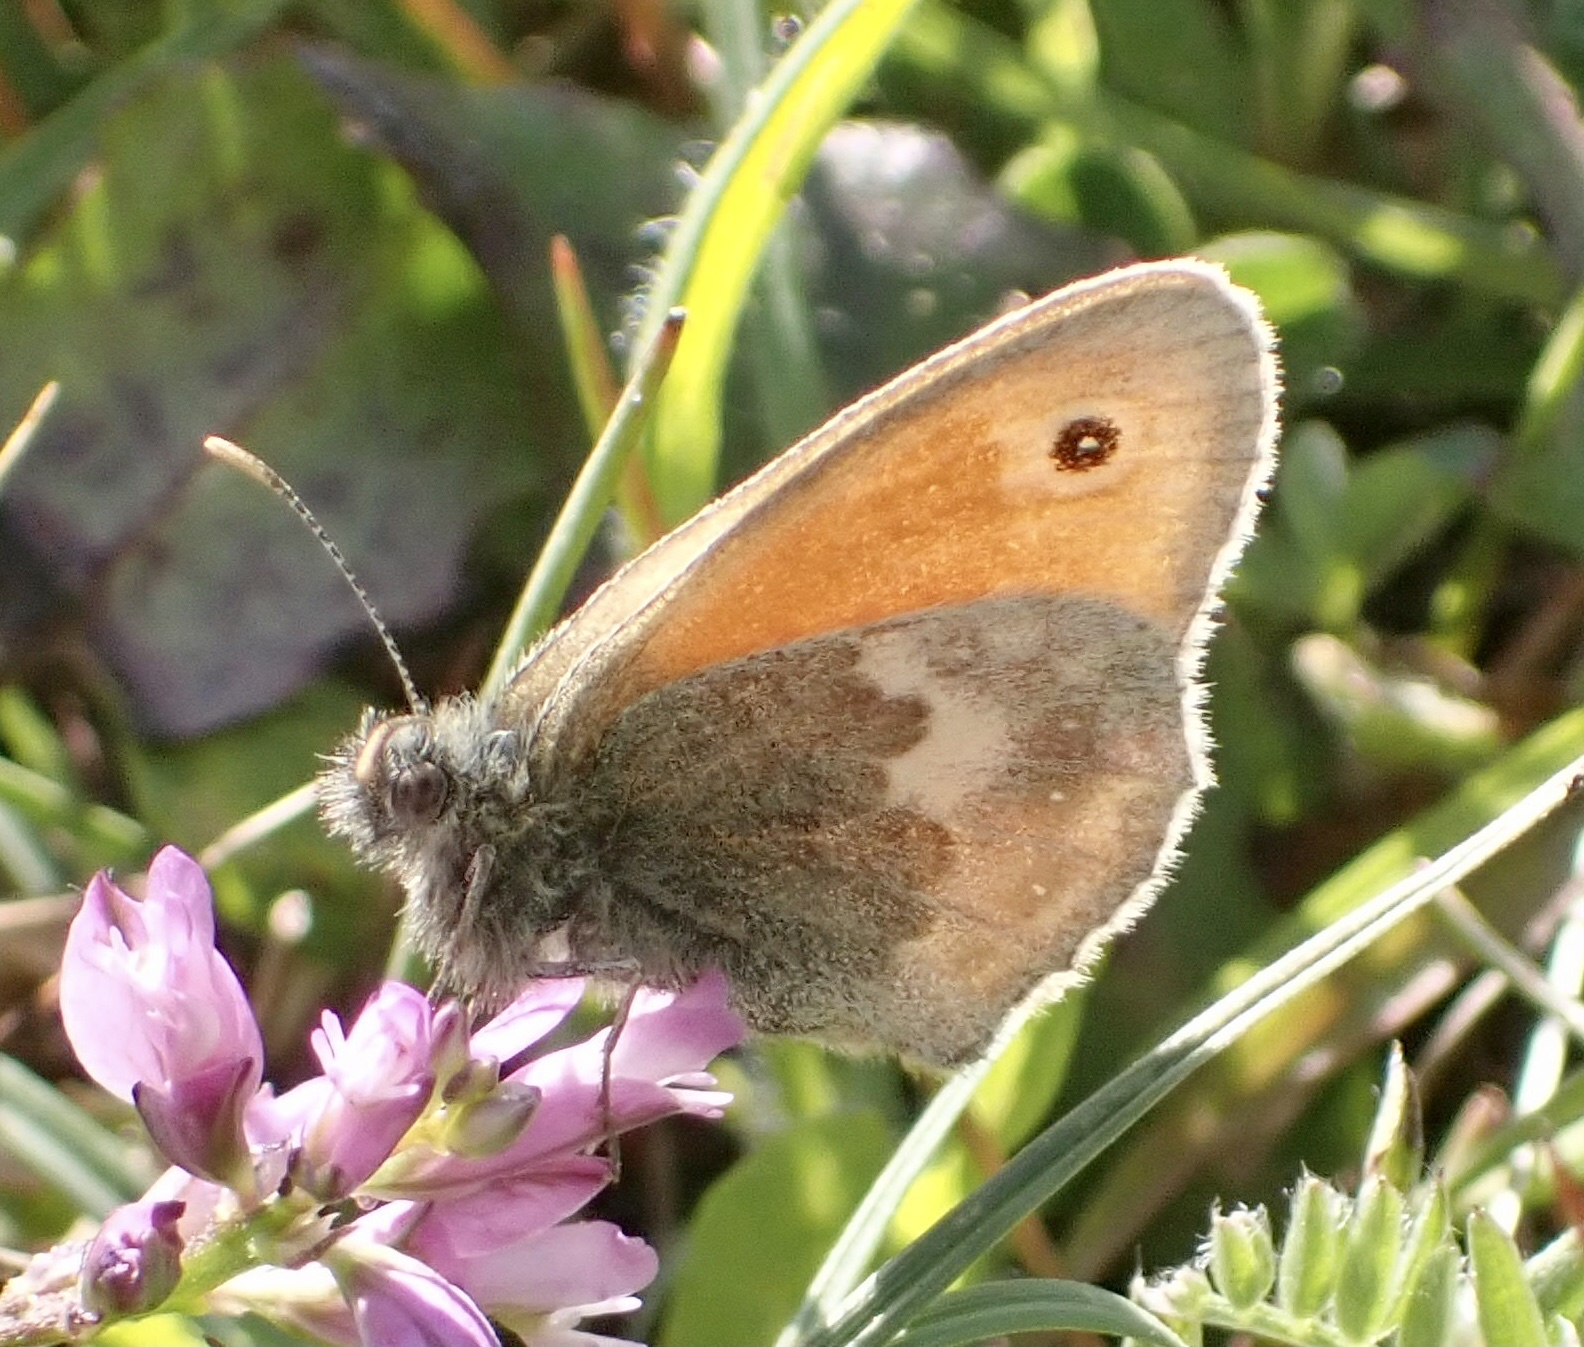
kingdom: Animalia
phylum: Arthropoda
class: Insecta
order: Lepidoptera
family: Nymphalidae
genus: Coenonympha
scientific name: Coenonympha pamphilus
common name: Small heath
